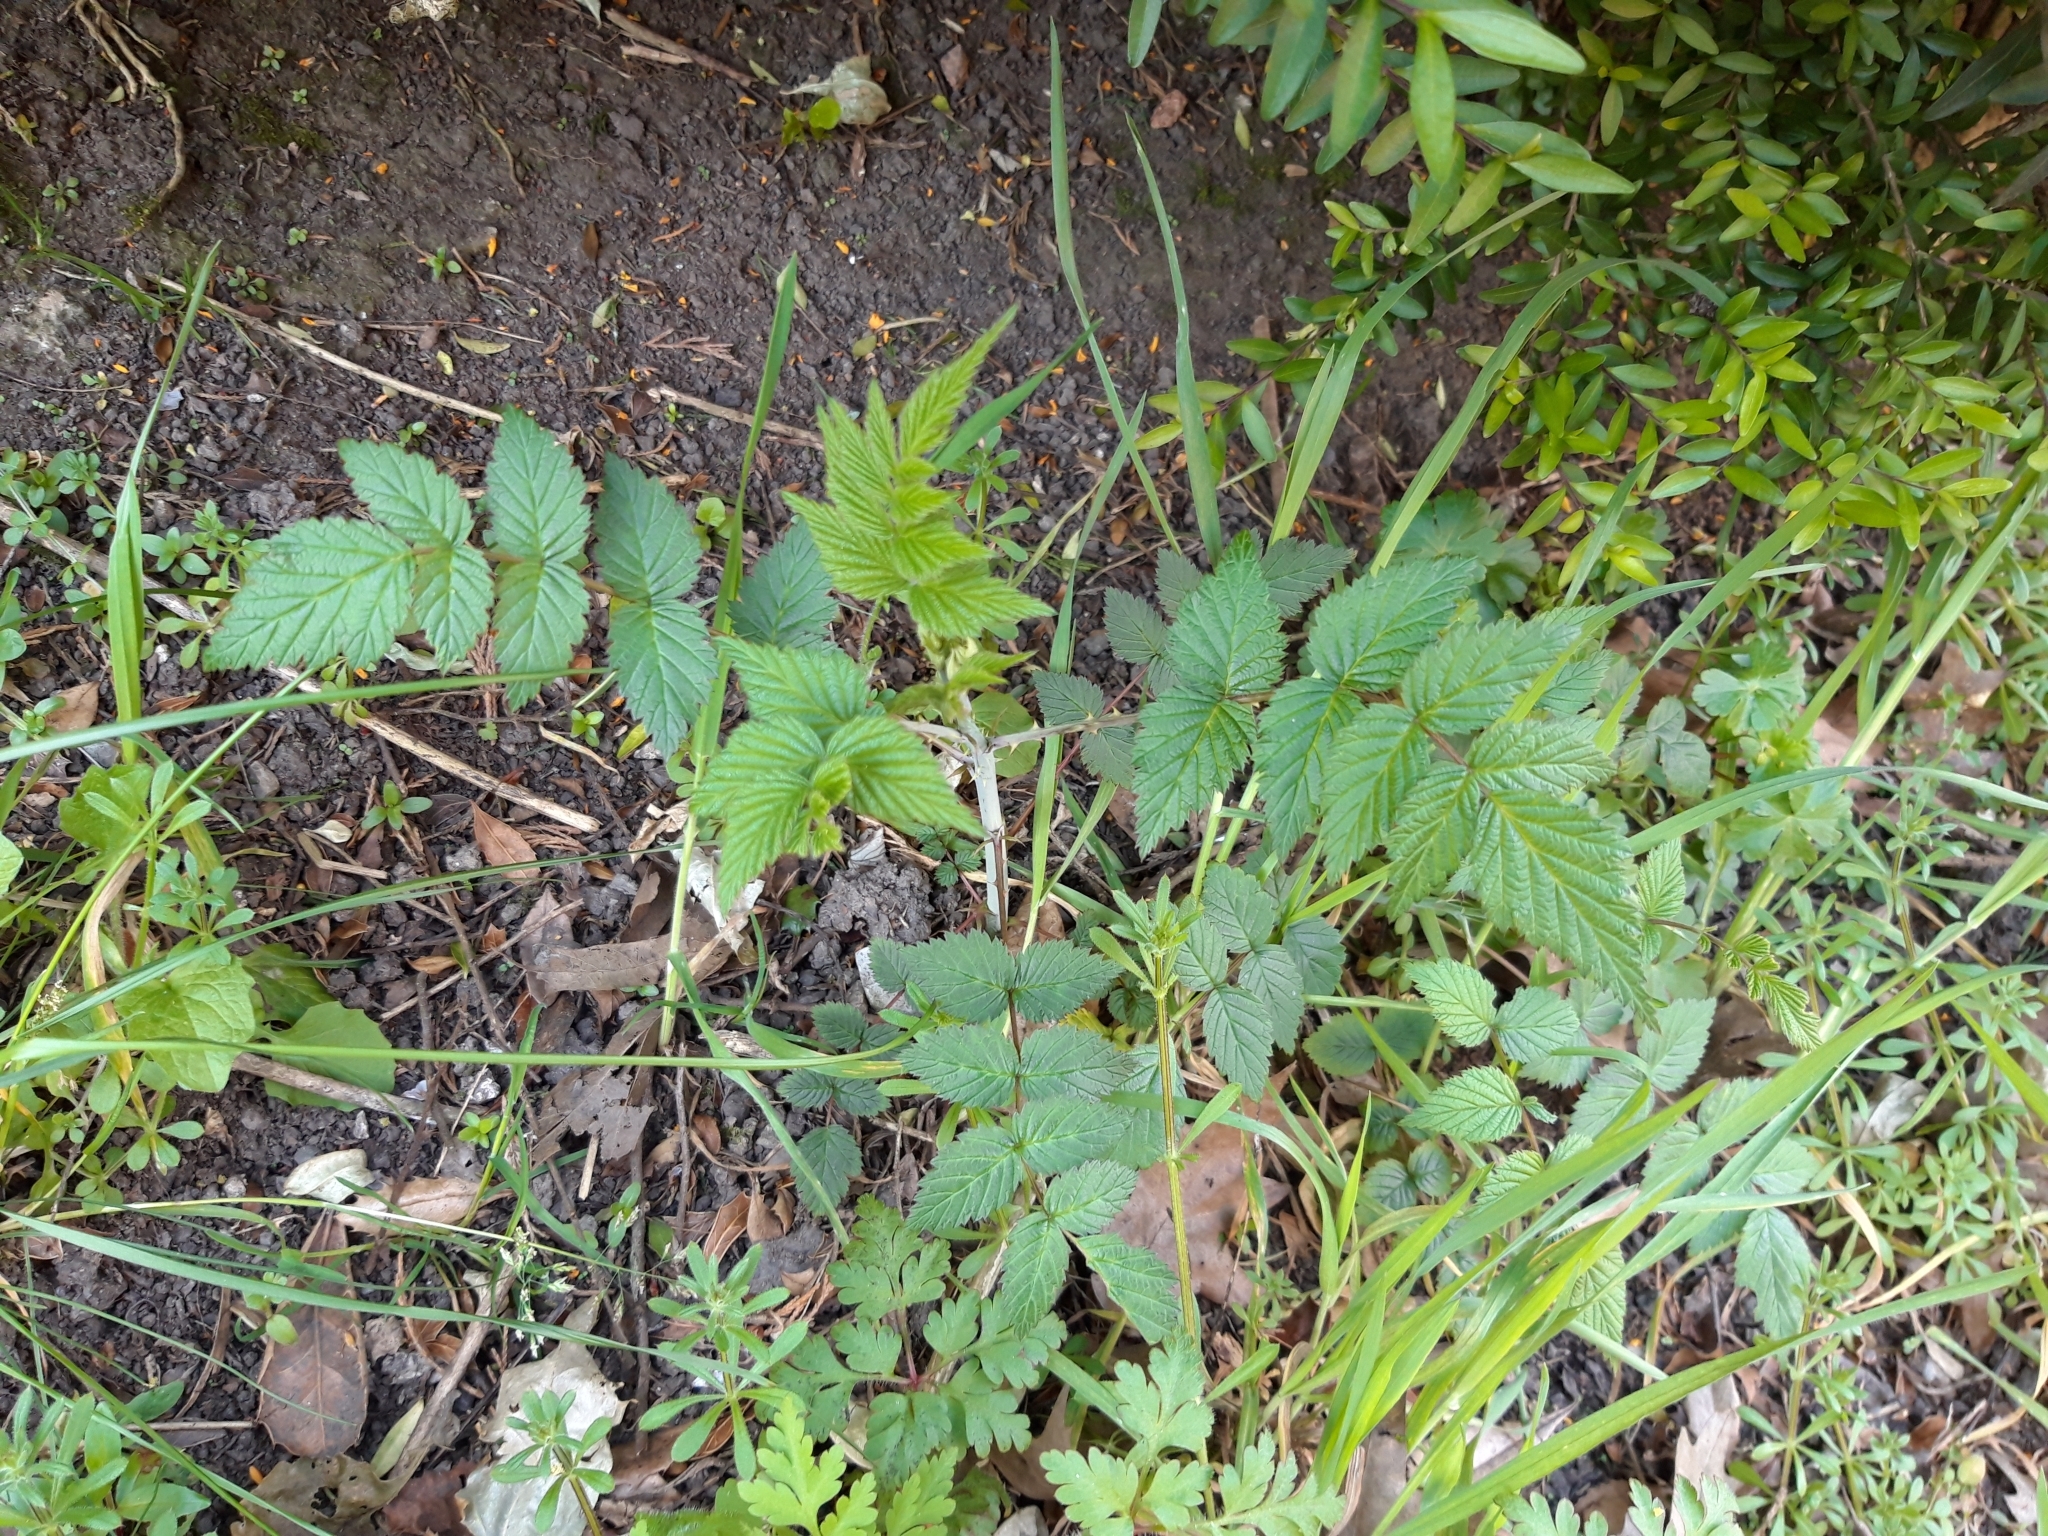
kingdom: Plantae
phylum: Tracheophyta
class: Magnoliopsida
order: Rosales
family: Rosaceae
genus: Filipendula
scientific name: Filipendula ulmaria
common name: Meadowsweet
